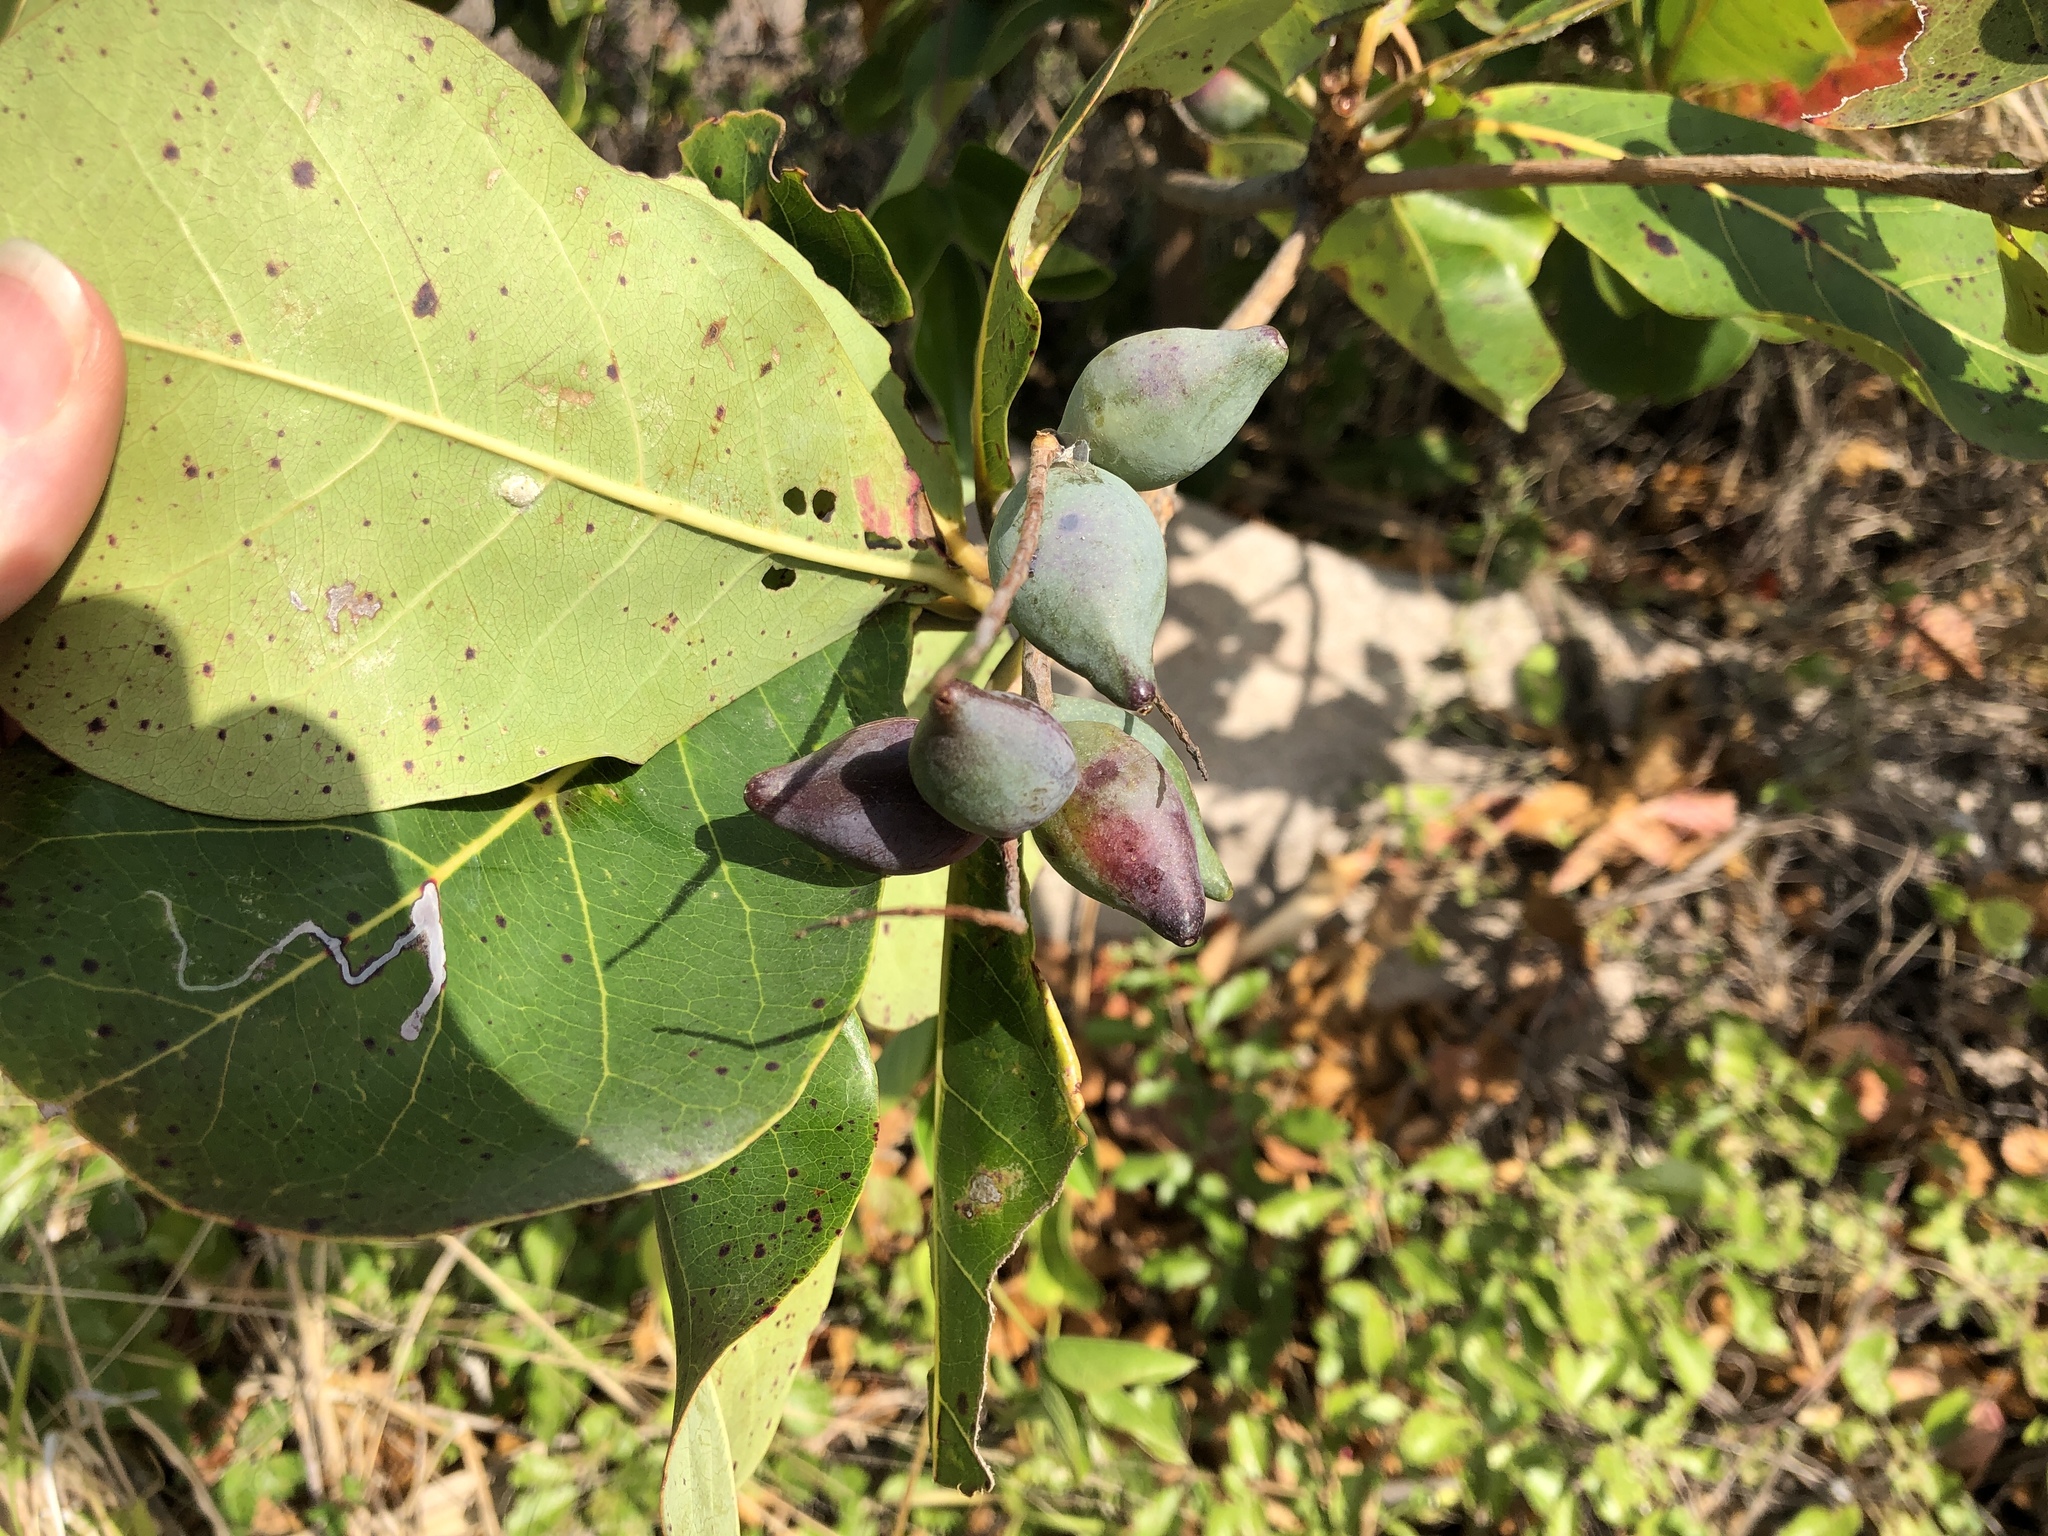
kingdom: Plantae
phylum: Tracheophyta
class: Magnoliopsida
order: Myrtales
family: Combretaceae
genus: Terminalia
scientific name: Terminalia arenicola
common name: Brown damson
